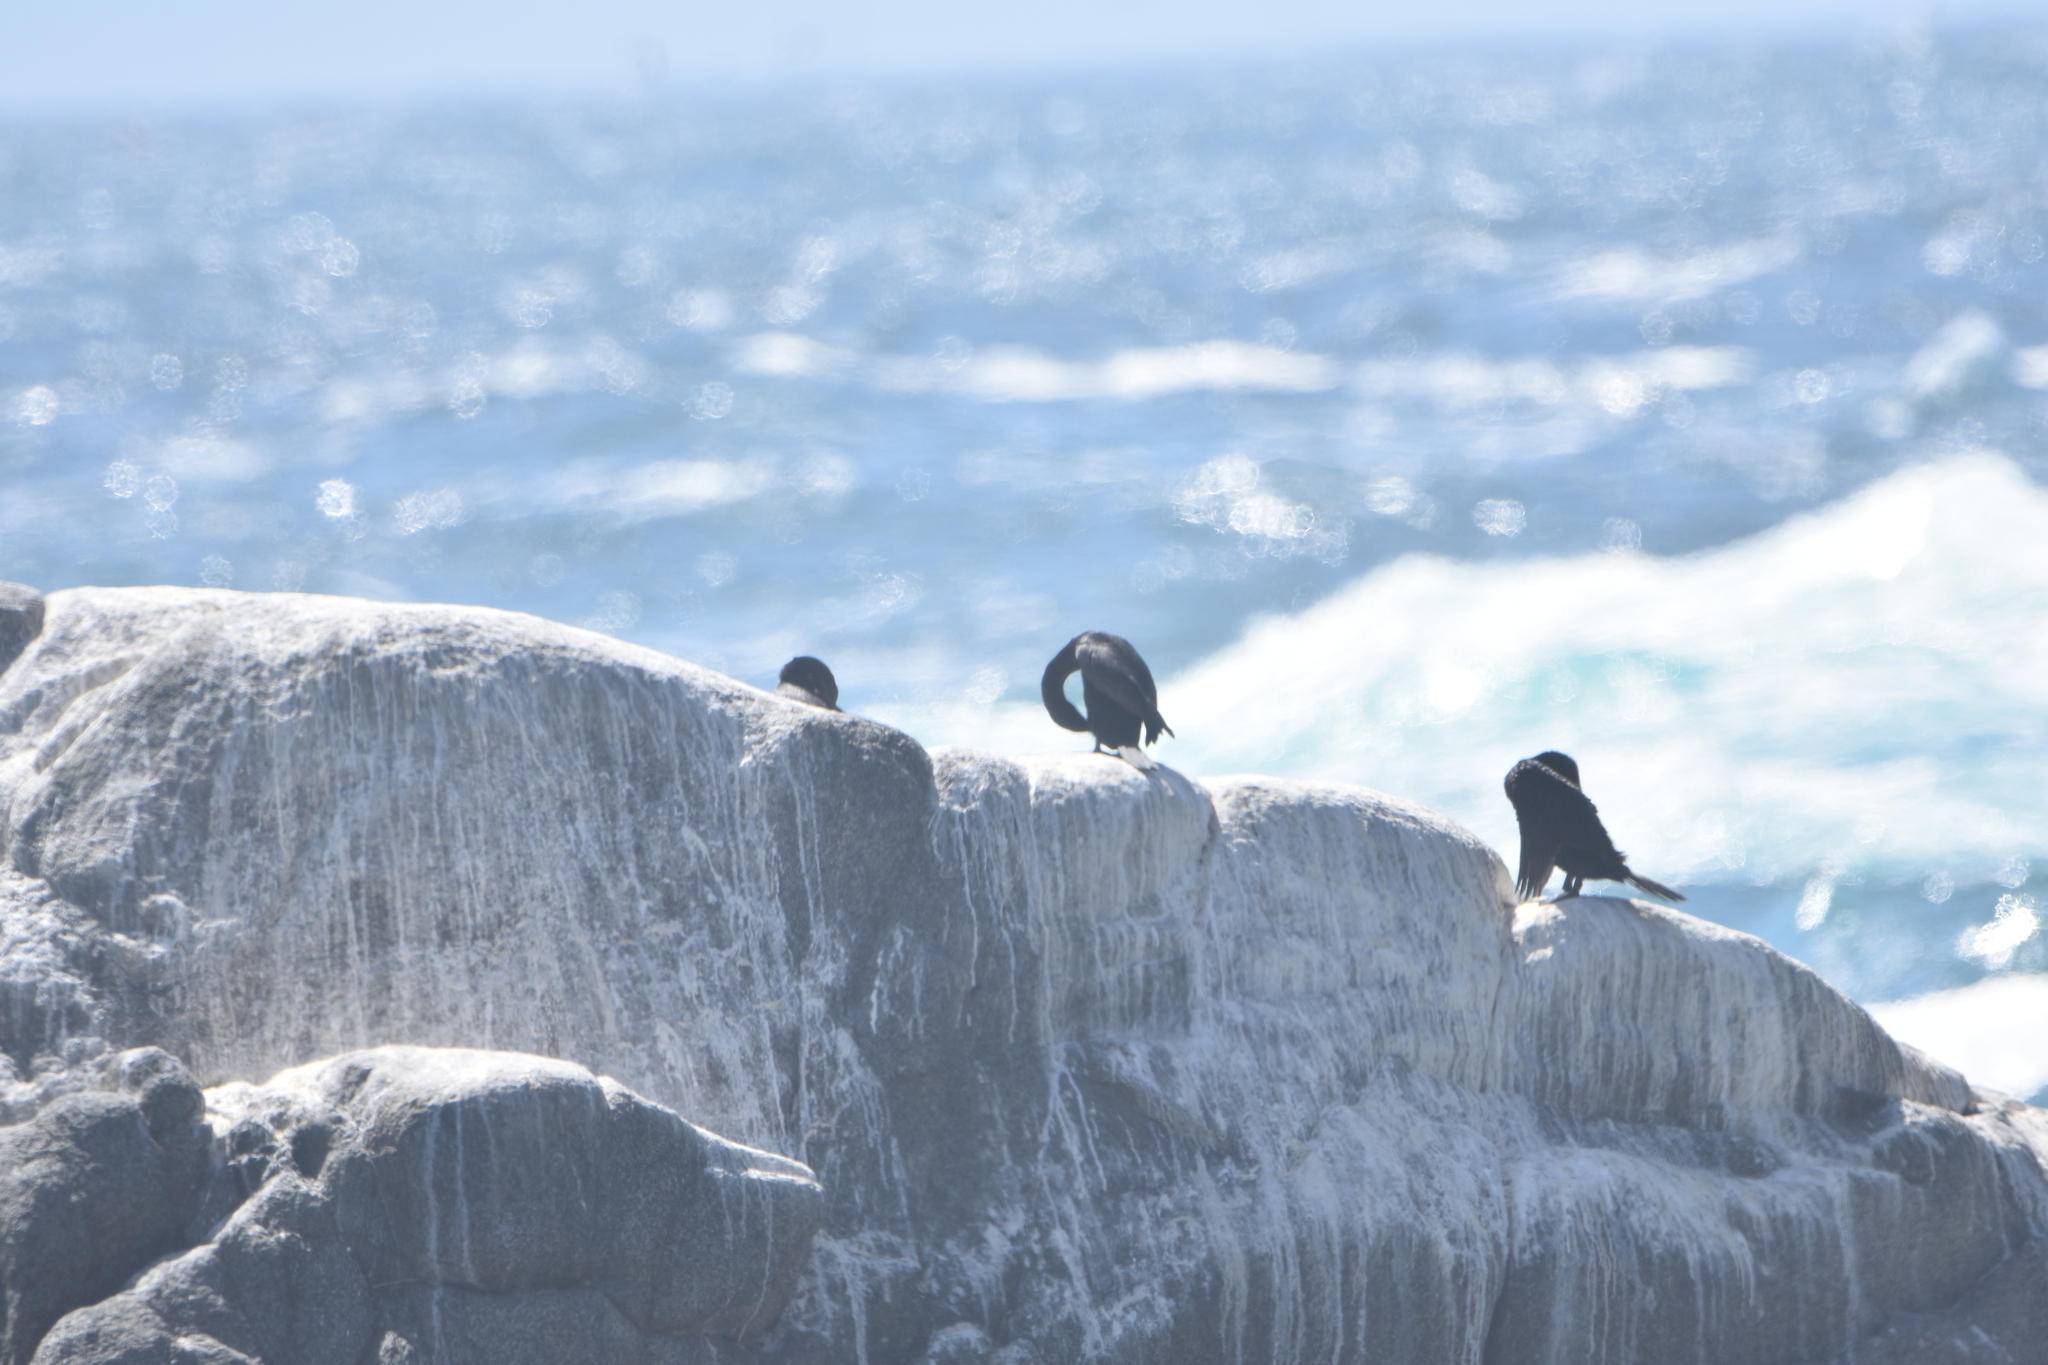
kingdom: Animalia
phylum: Chordata
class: Aves
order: Suliformes
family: Phalacrocoracidae
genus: Phalacrocorax
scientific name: Phalacrocorax brasilianus
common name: Neotropic cormorant
